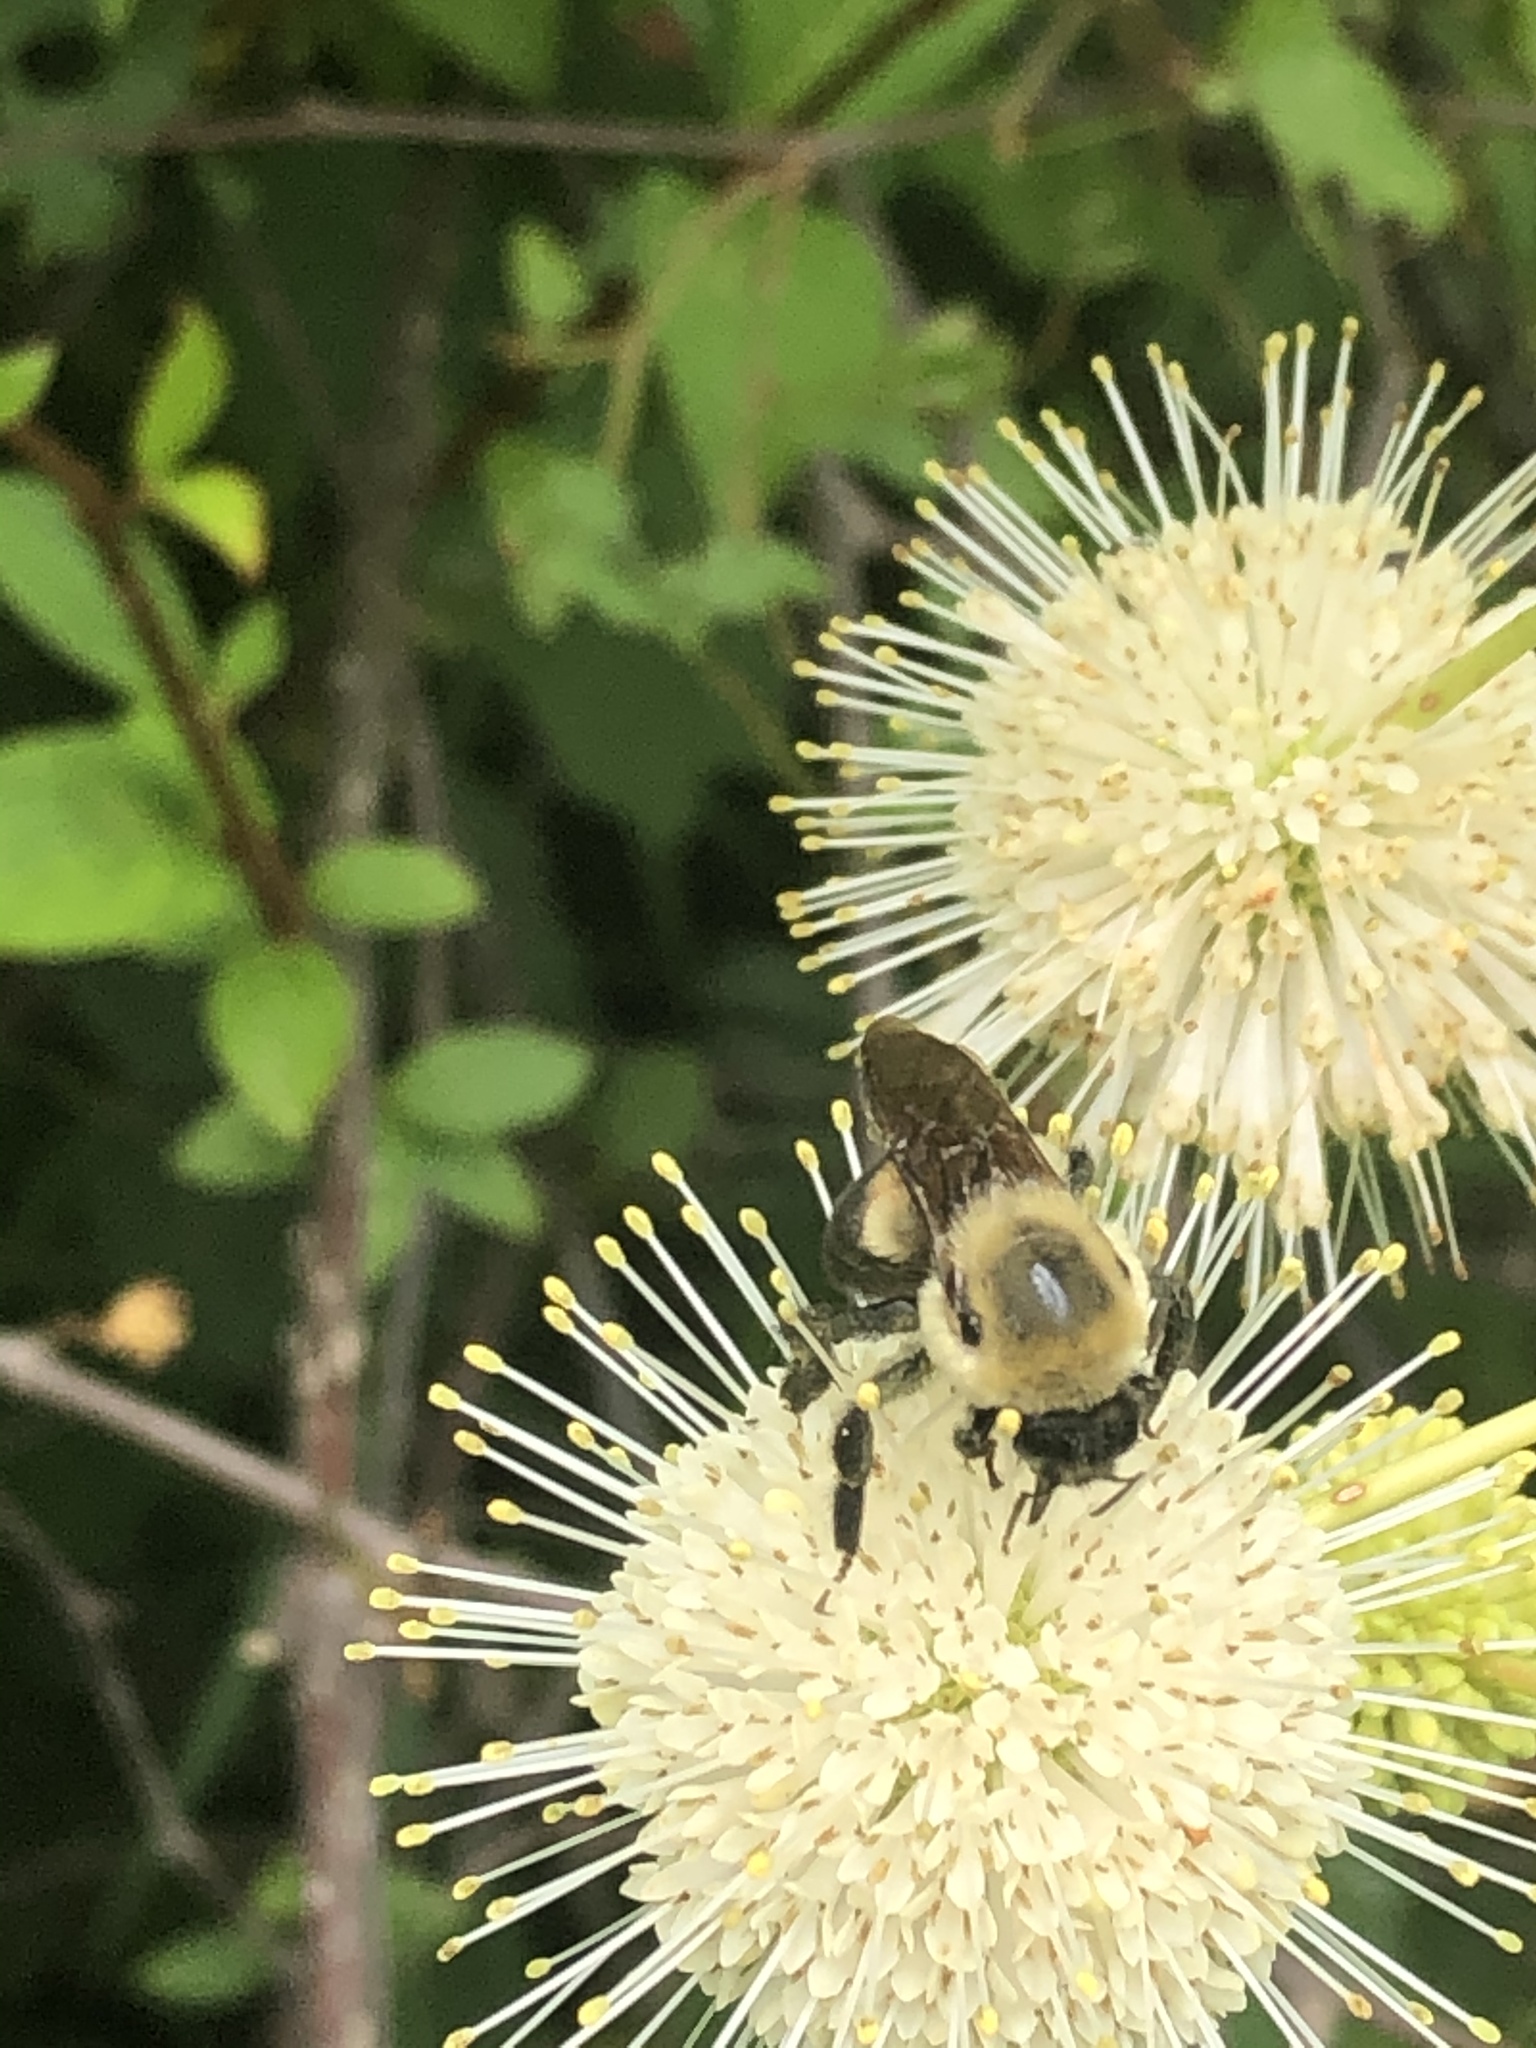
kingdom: Animalia
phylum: Arthropoda
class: Insecta
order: Hymenoptera
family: Apidae
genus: Bombus
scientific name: Bombus griseocollis
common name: Brown-belted bumble bee
